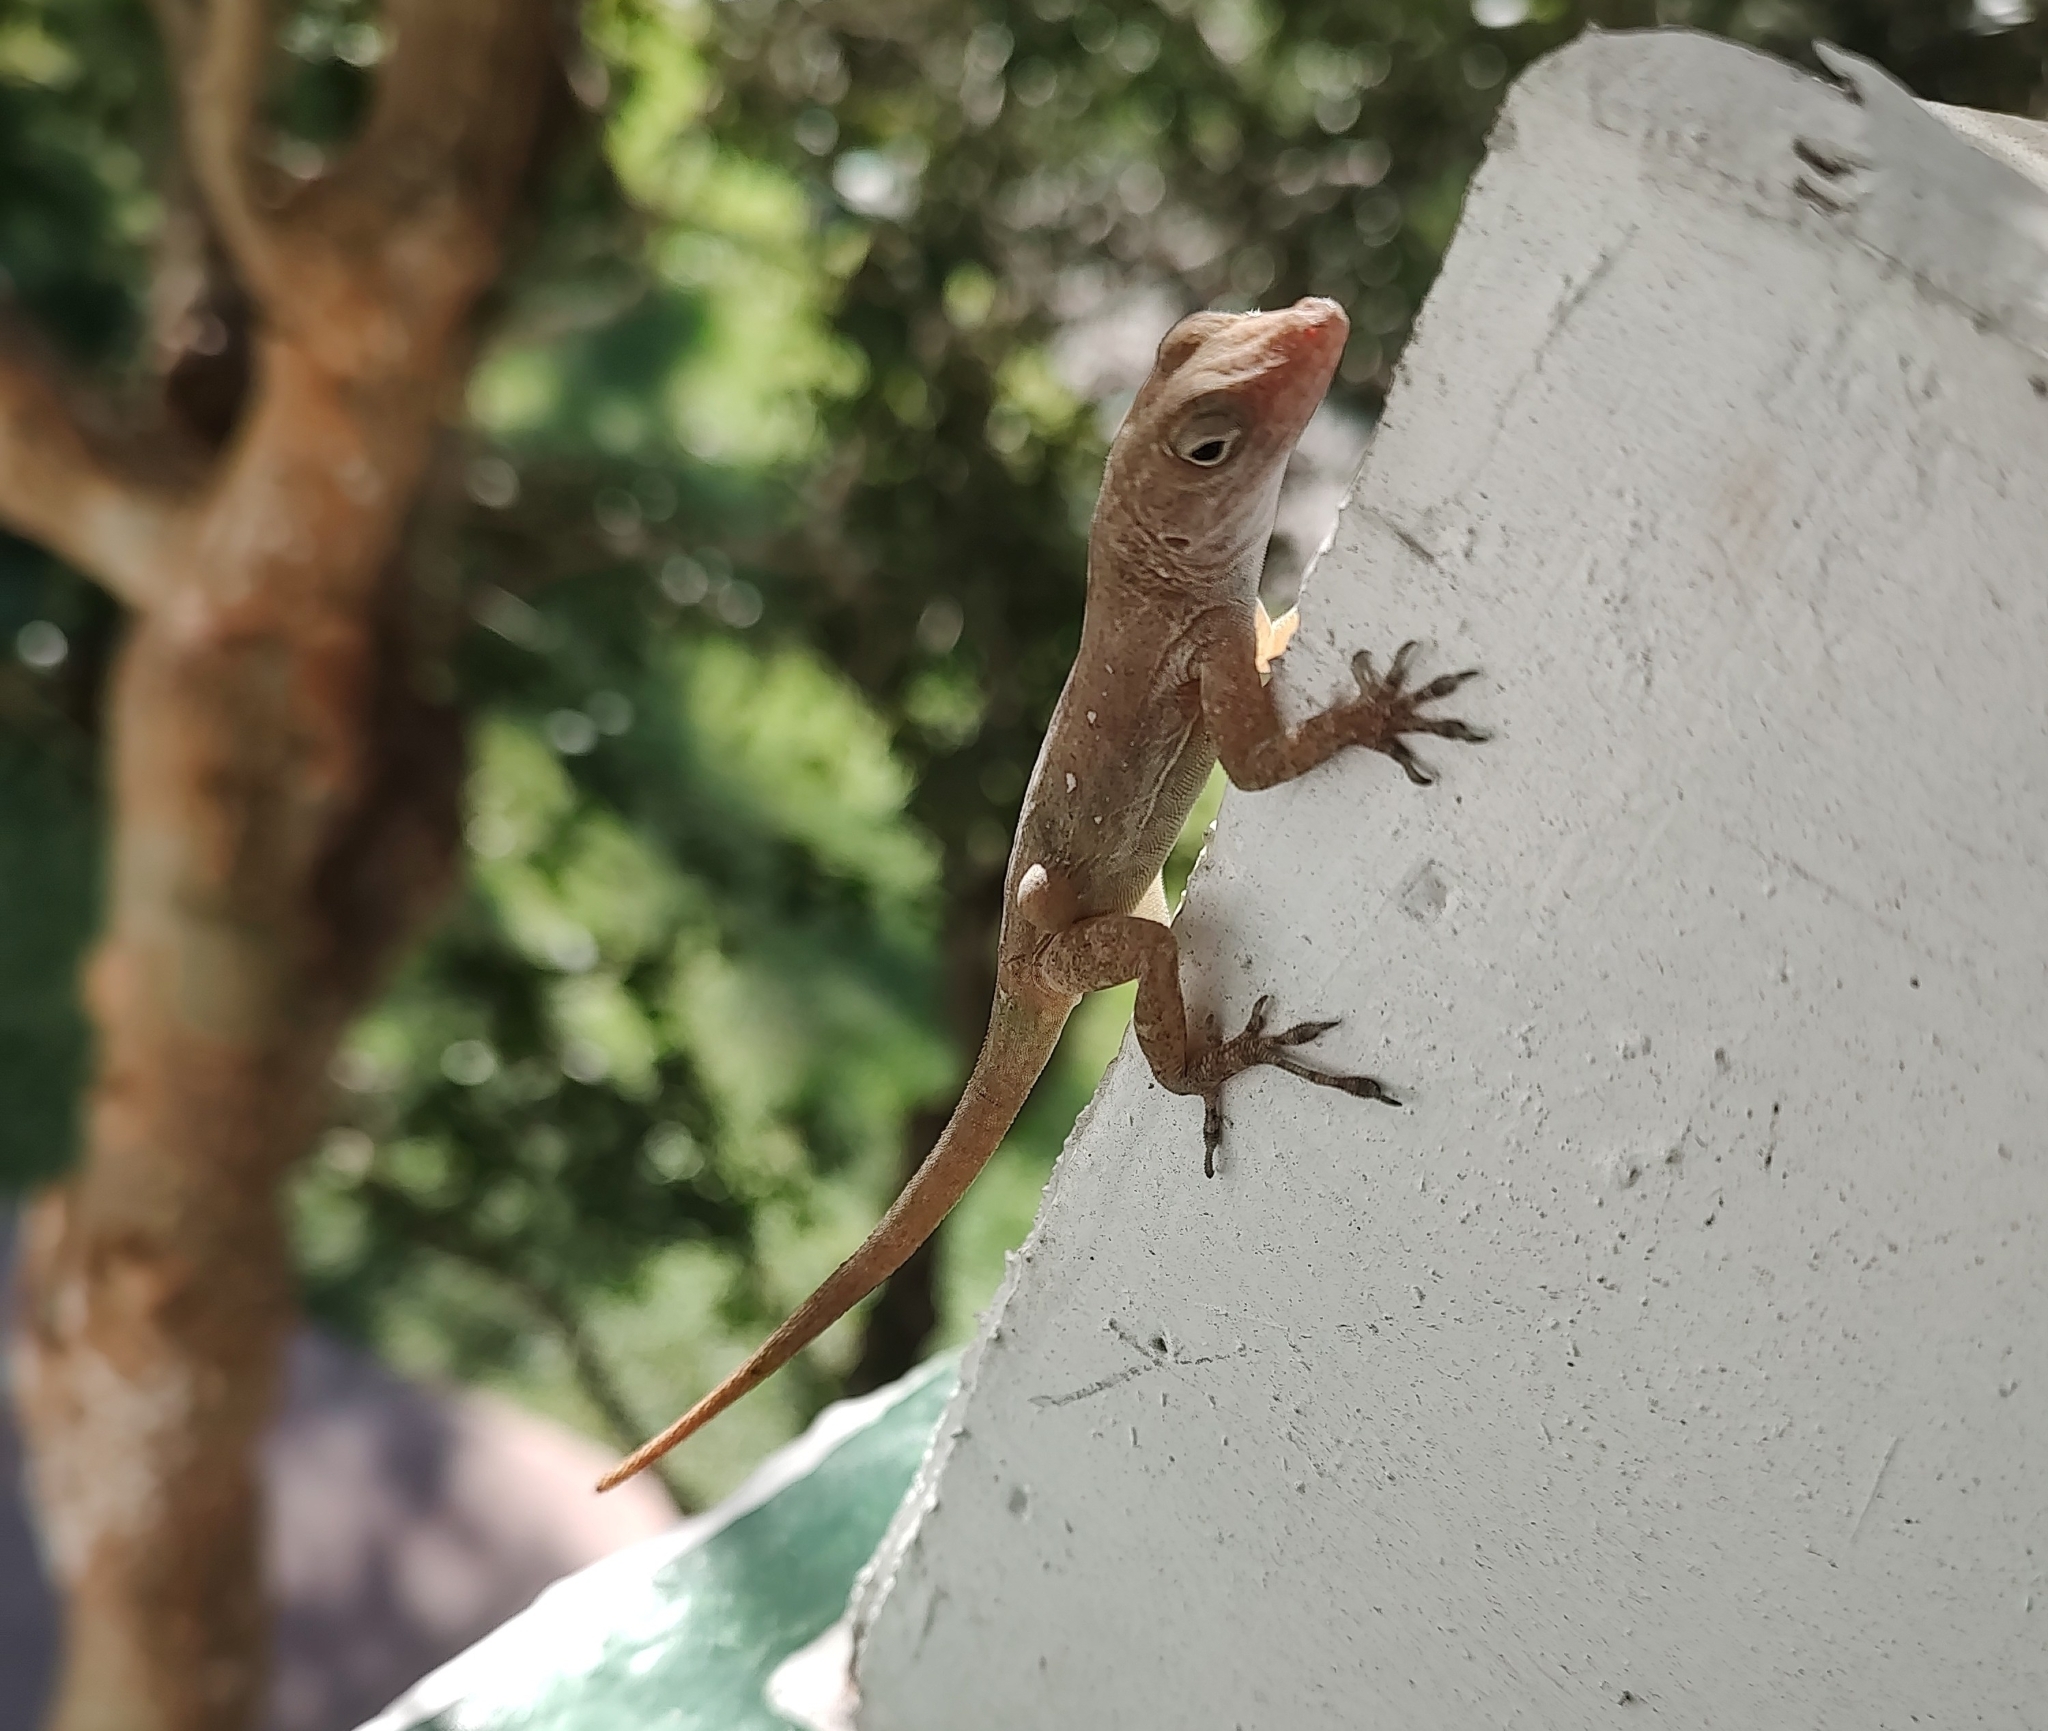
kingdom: Animalia
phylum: Chordata
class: Squamata
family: Dactyloidae
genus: Anolis
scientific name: Anolis cristatellus
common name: Crested anole
